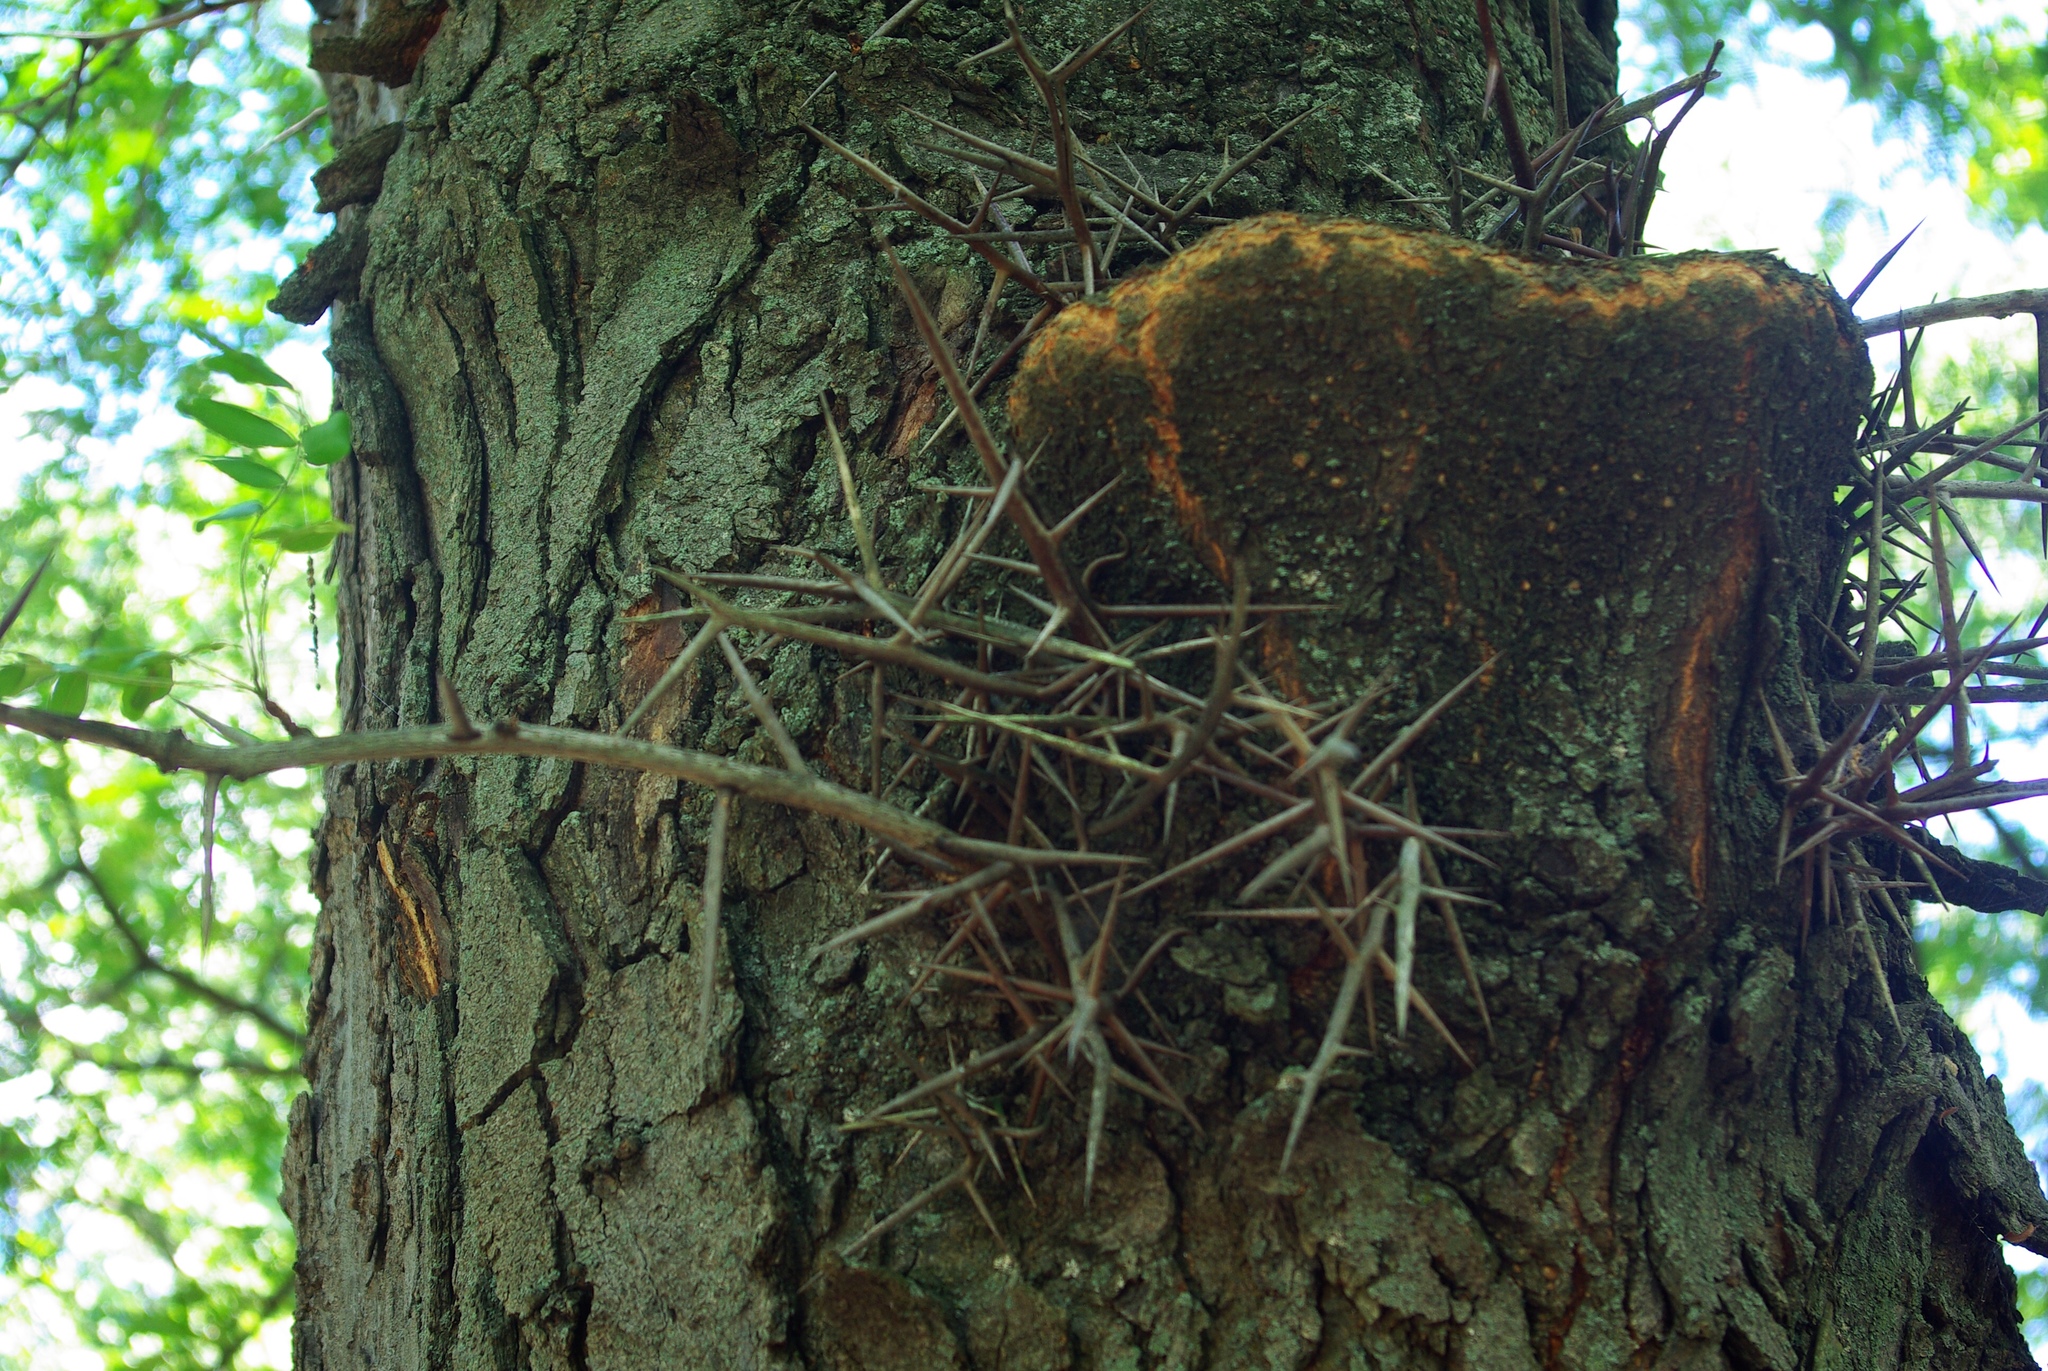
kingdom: Plantae
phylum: Tracheophyta
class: Magnoliopsida
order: Fabales
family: Fabaceae
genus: Gleditsia
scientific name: Gleditsia triacanthos
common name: Common honeylocust
